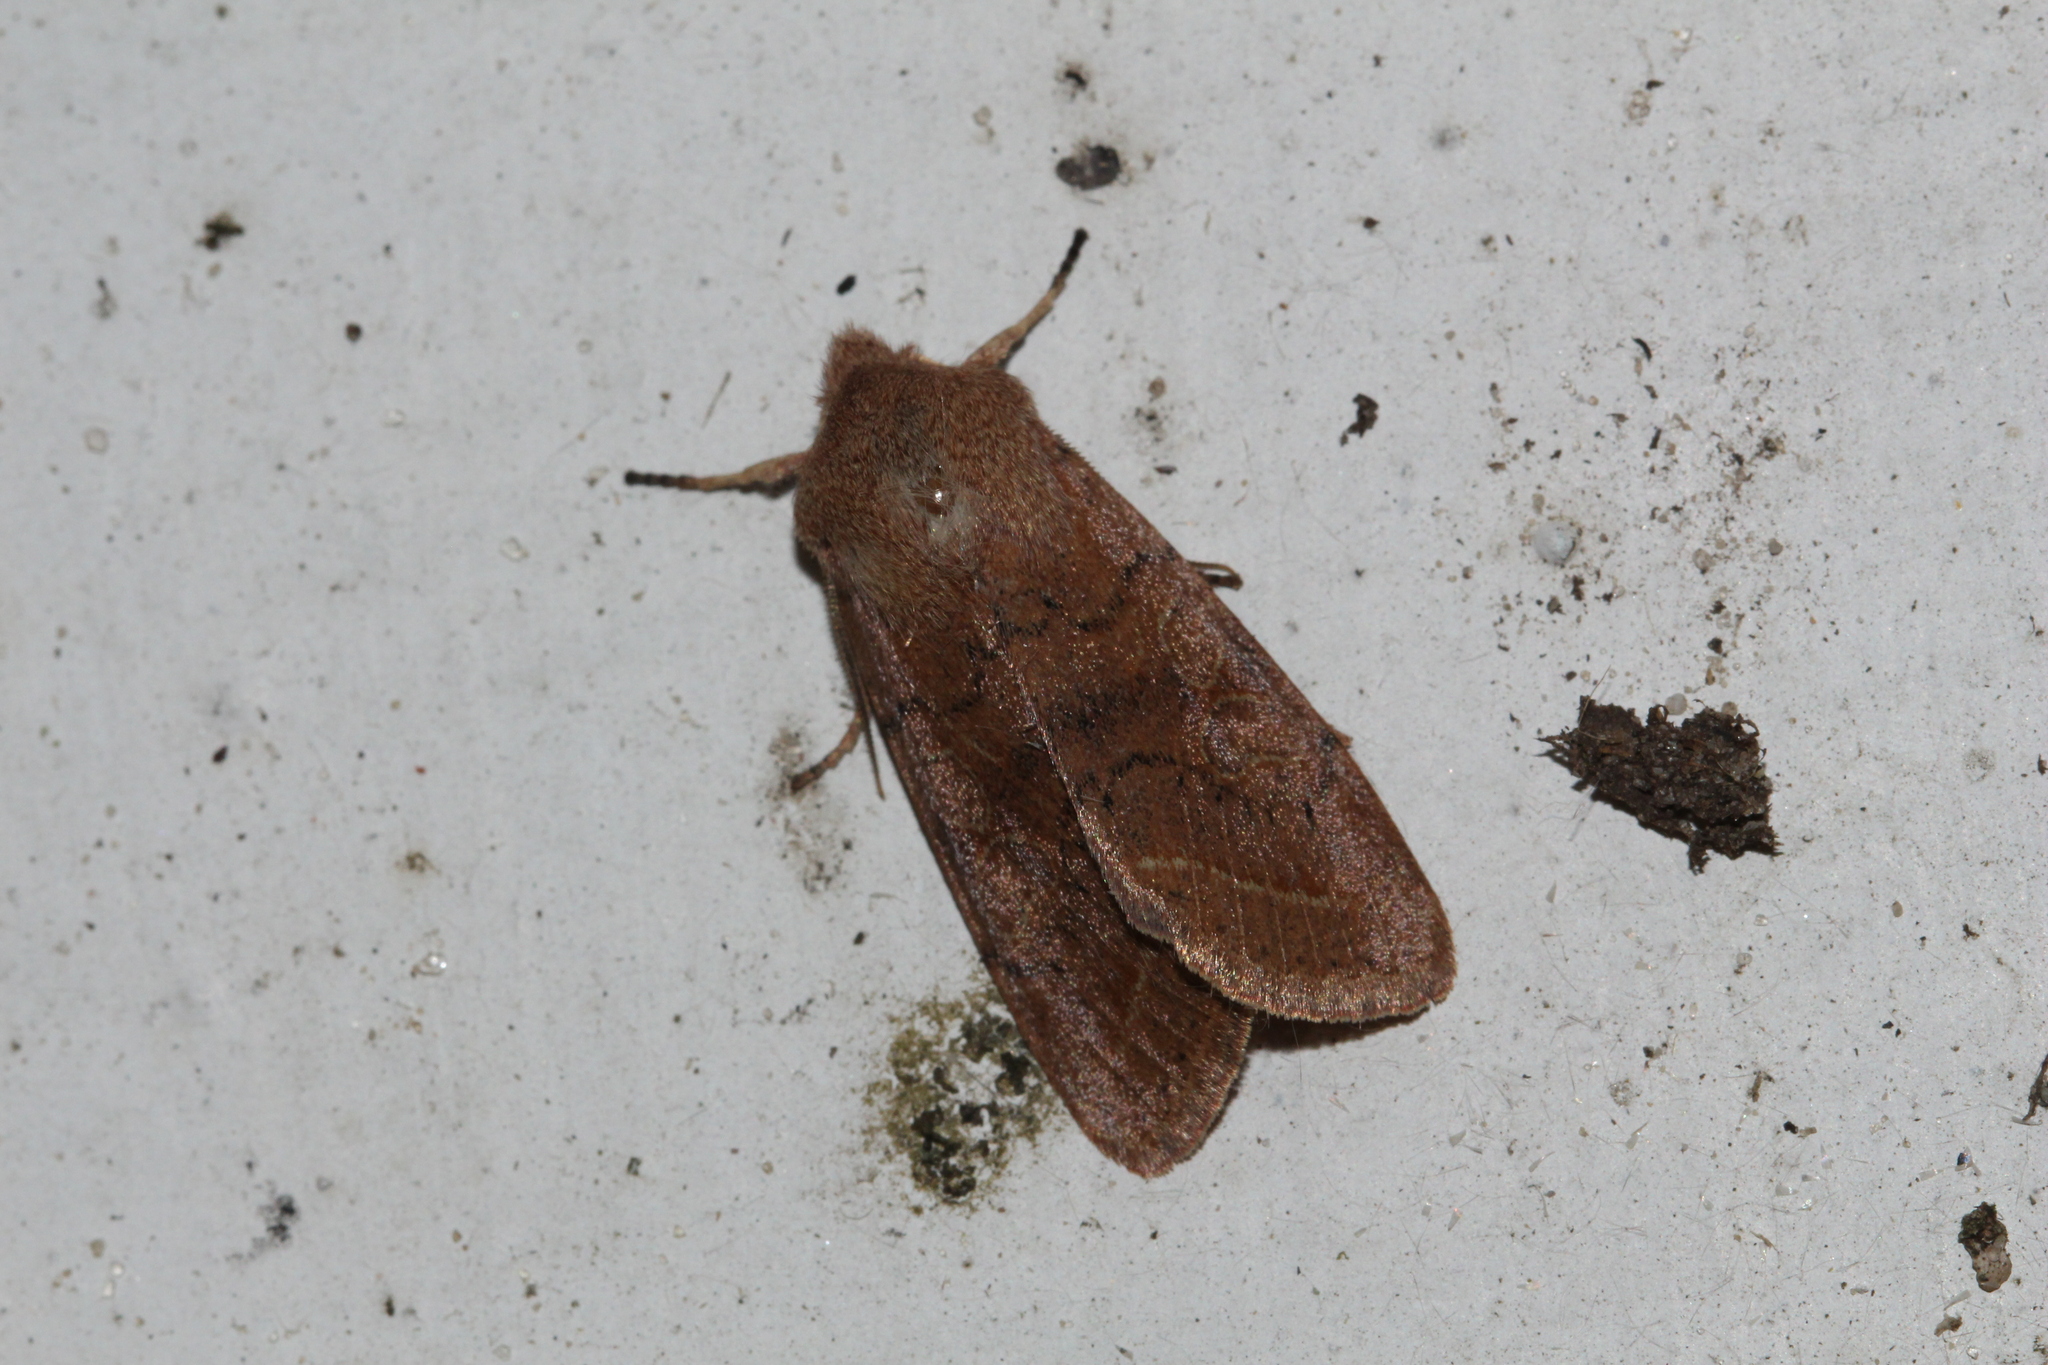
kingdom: Animalia
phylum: Arthropoda
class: Insecta
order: Lepidoptera
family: Noctuidae
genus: Orthosia
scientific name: Orthosia cerasi
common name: Common quaker
